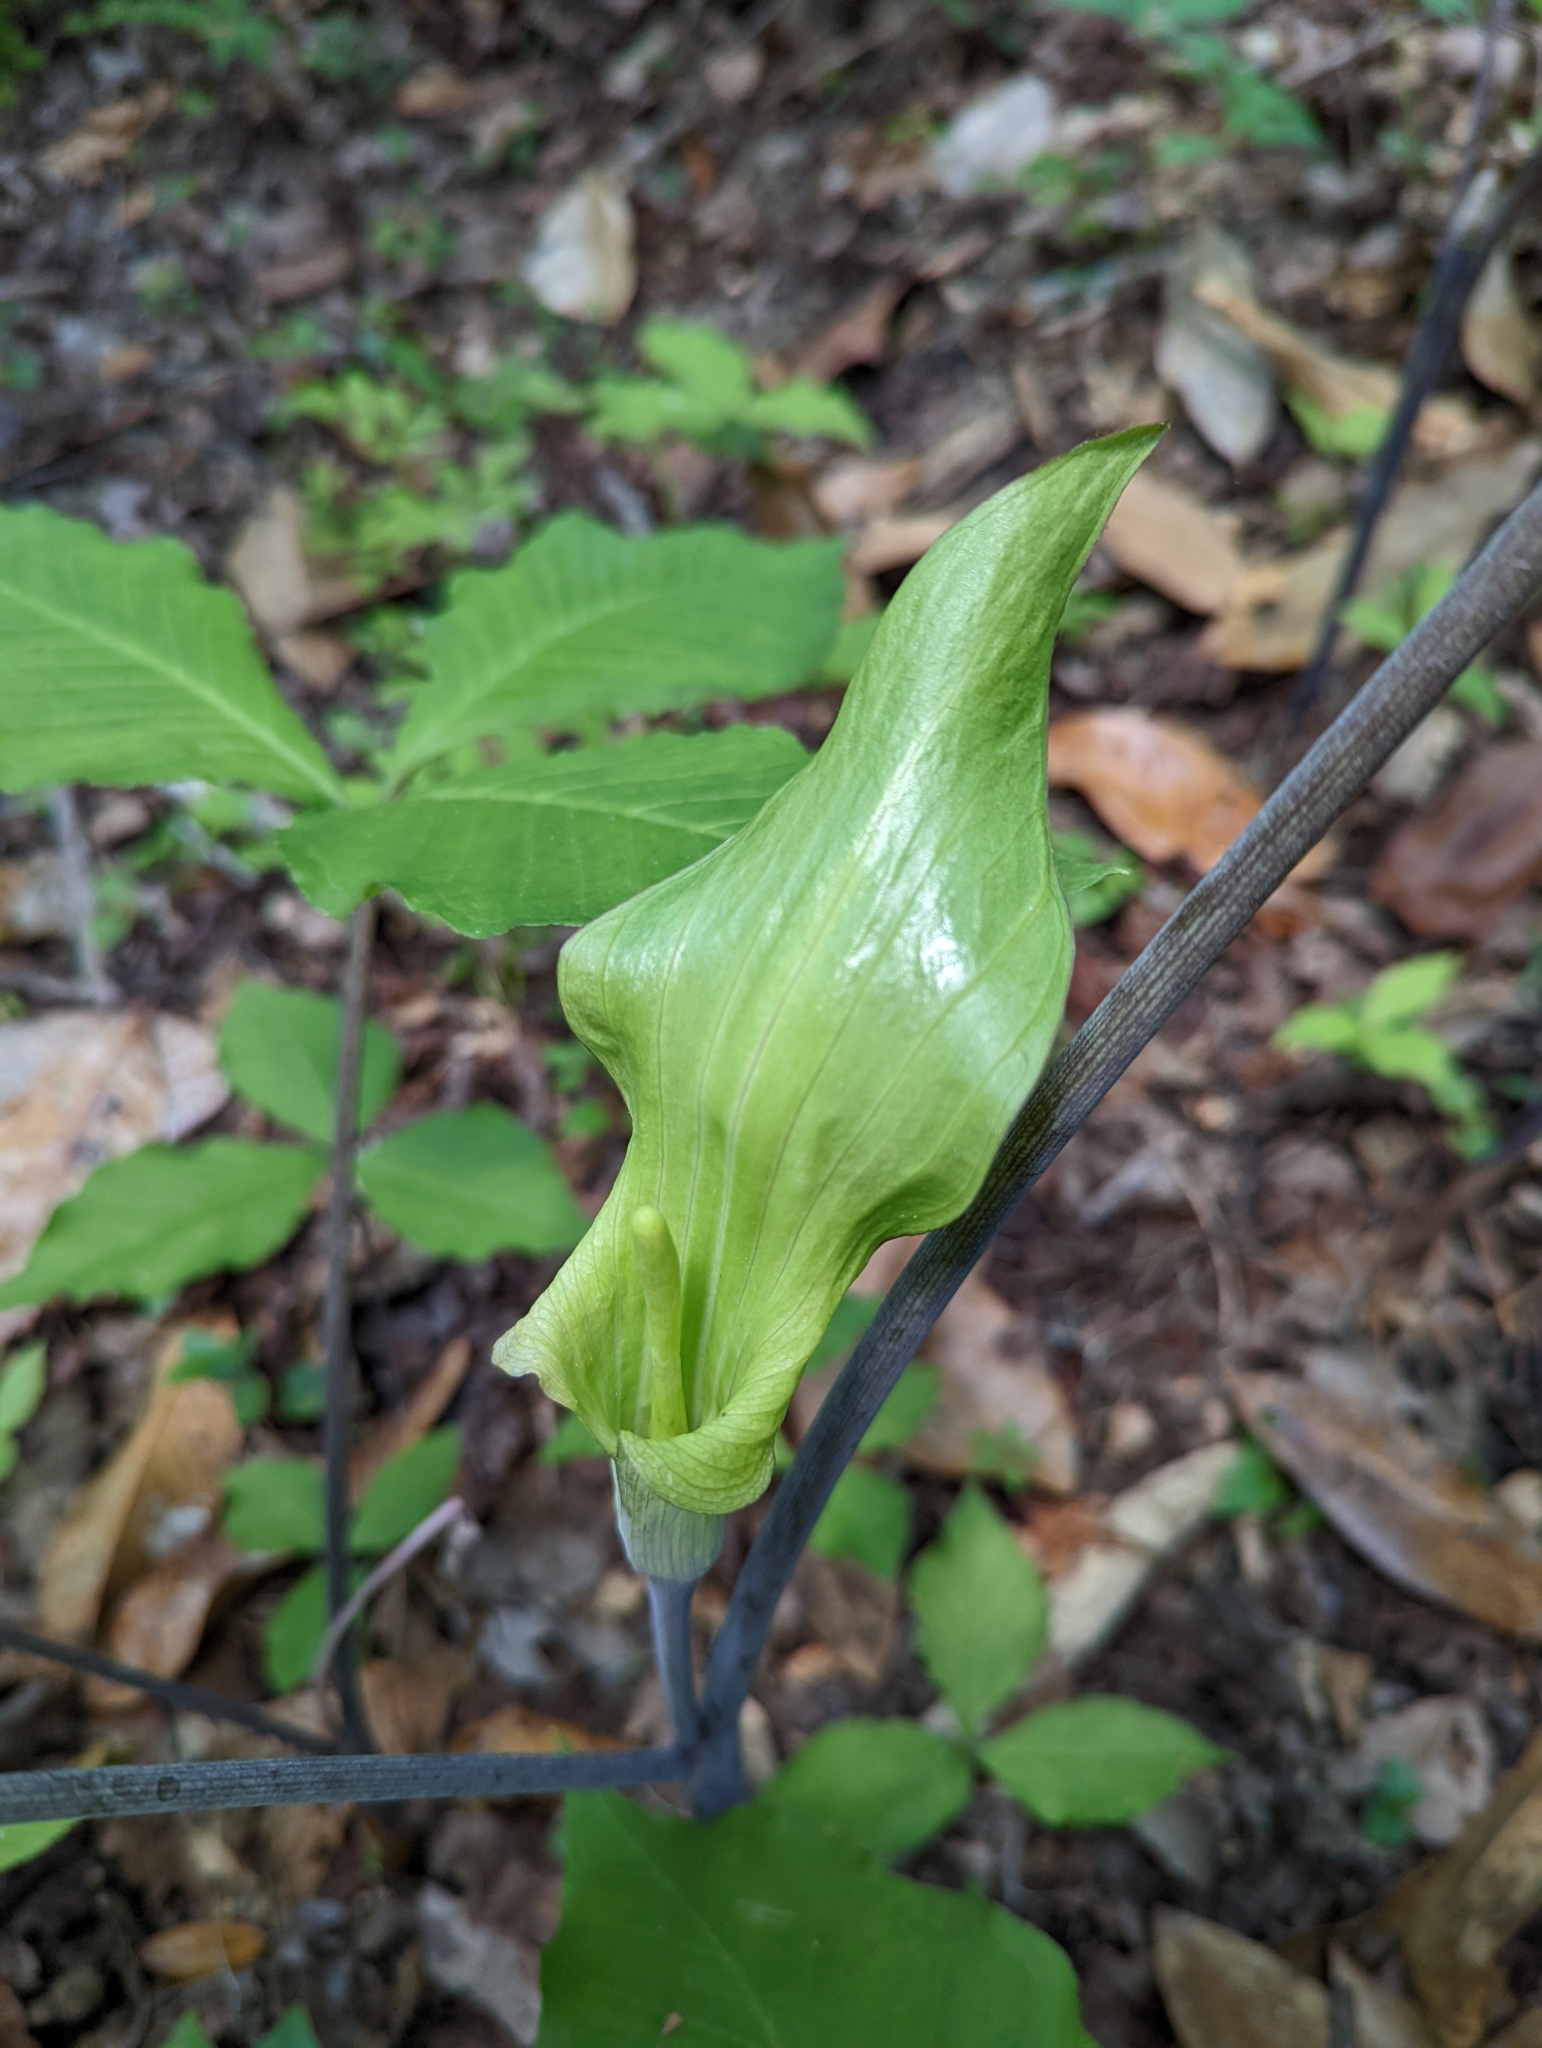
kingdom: Plantae
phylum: Tracheophyta
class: Liliopsida
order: Alismatales
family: Araceae
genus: Arisaema
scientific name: Arisaema triphyllum
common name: Jack-in-the-pulpit
